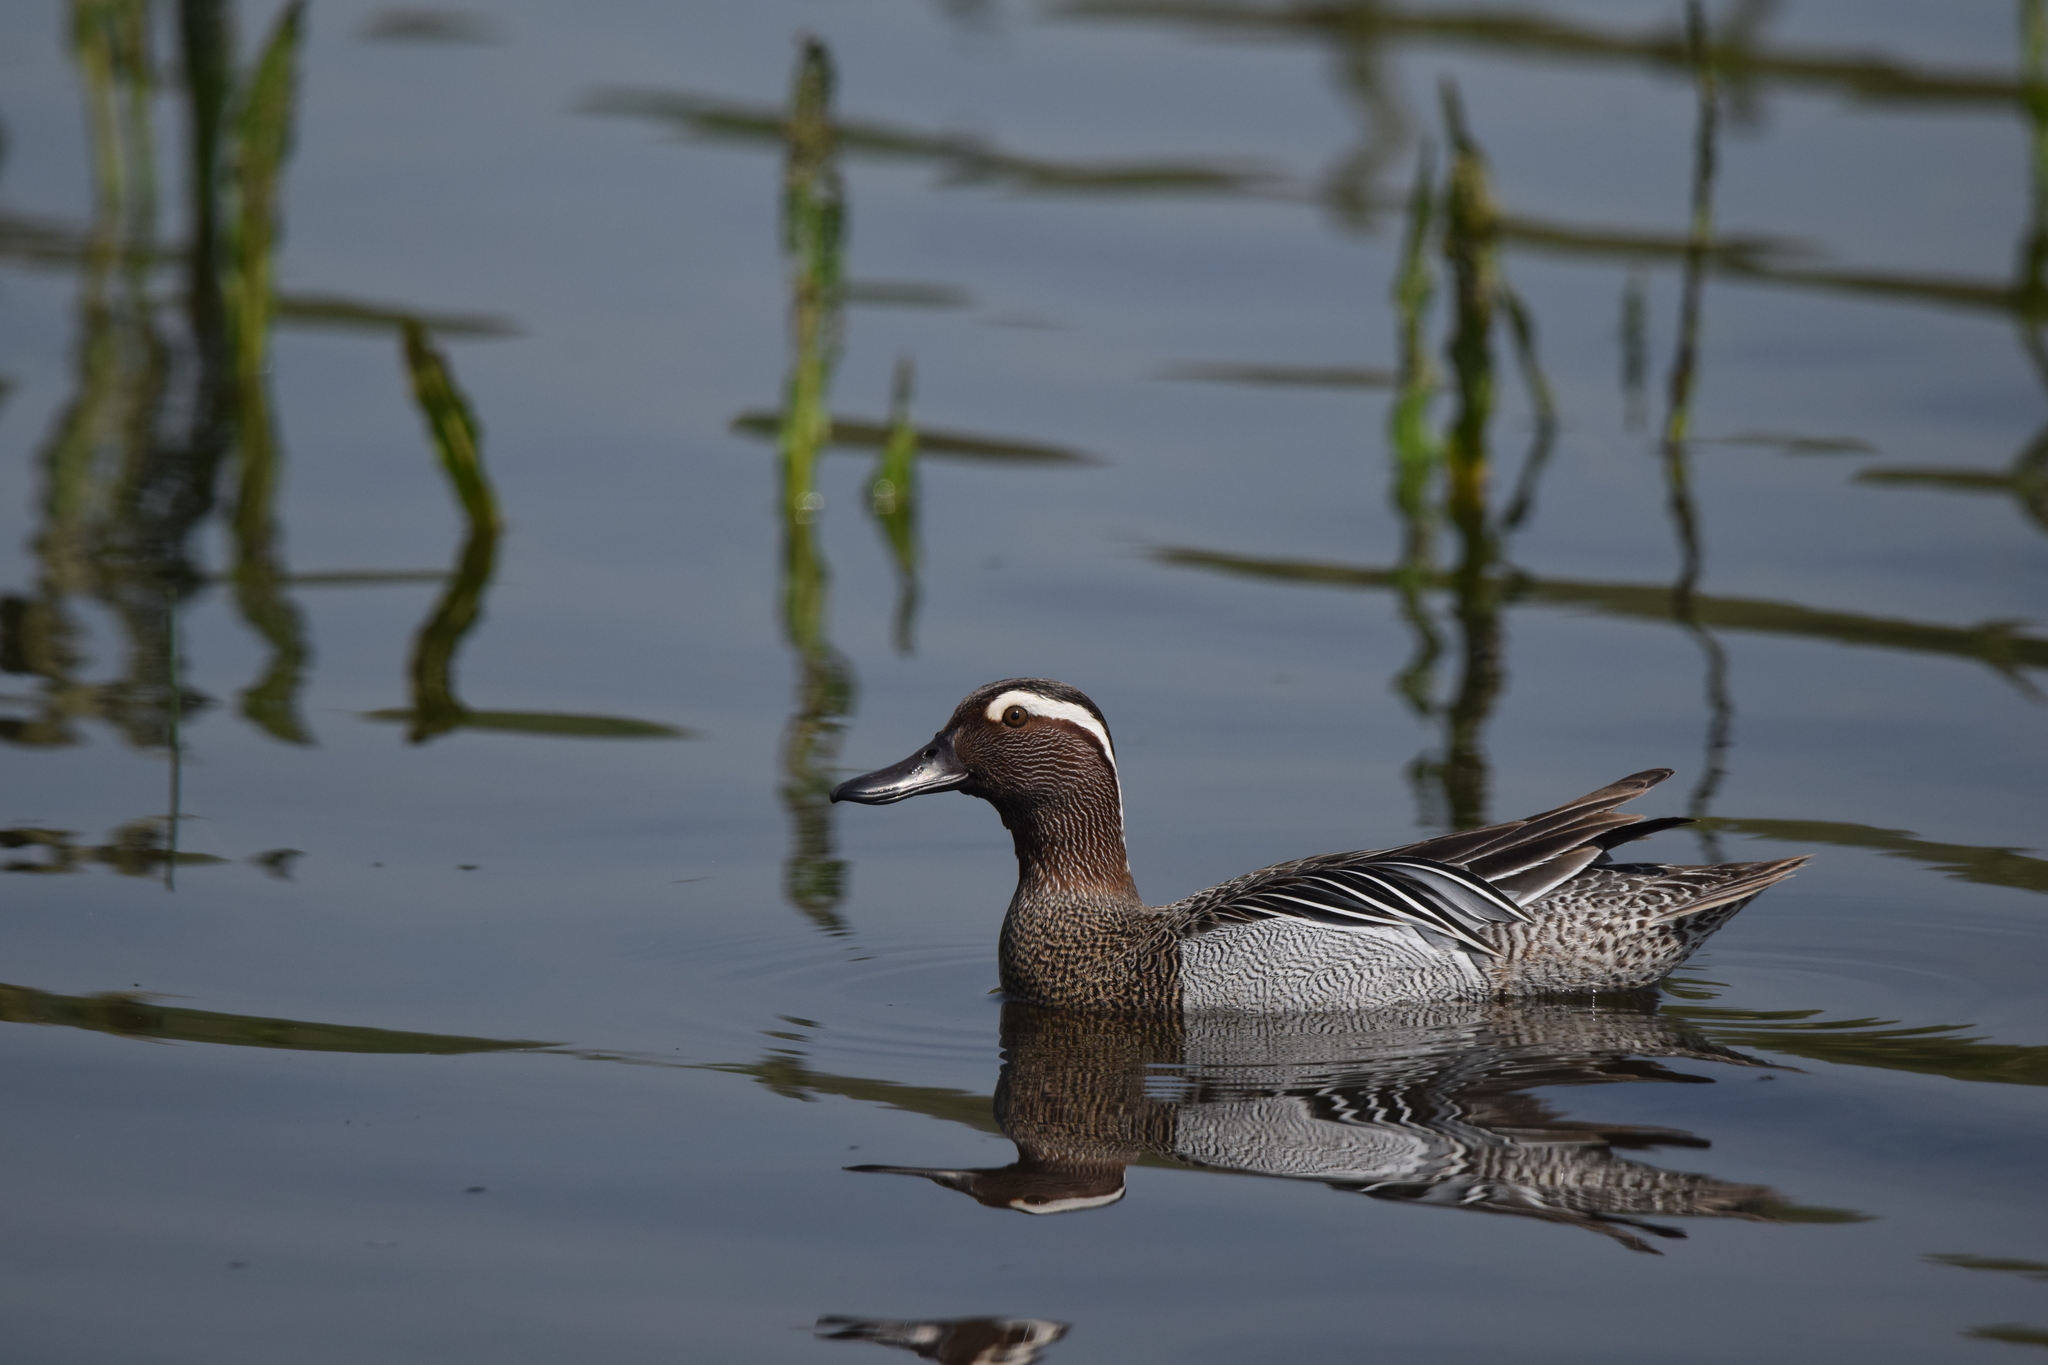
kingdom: Animalia
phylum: Chordata
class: Aves
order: Anseriformes
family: Anatidae
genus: Spatula
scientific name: Spatula querquedula
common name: Garganey
